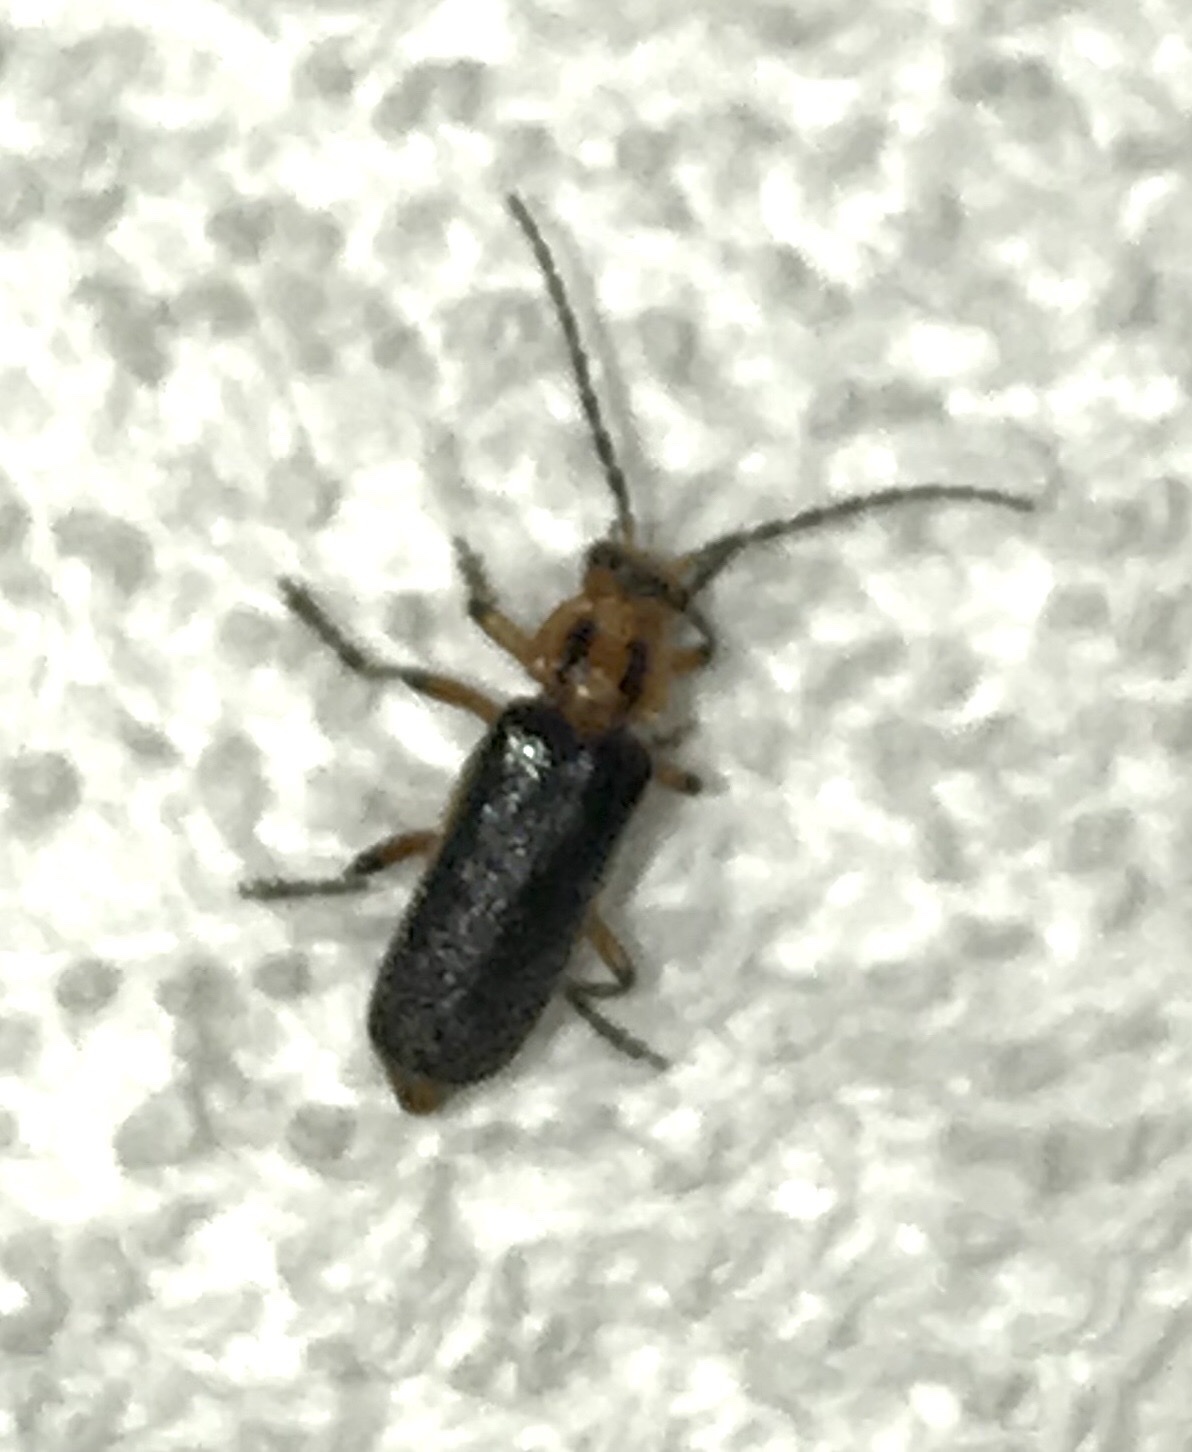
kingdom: Animalia
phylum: Arthropoda
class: Insecta
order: Coleoptera
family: Cantharidae
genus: Atalantycha
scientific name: Atalantycha bilineata
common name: Two-lined leatherwing
